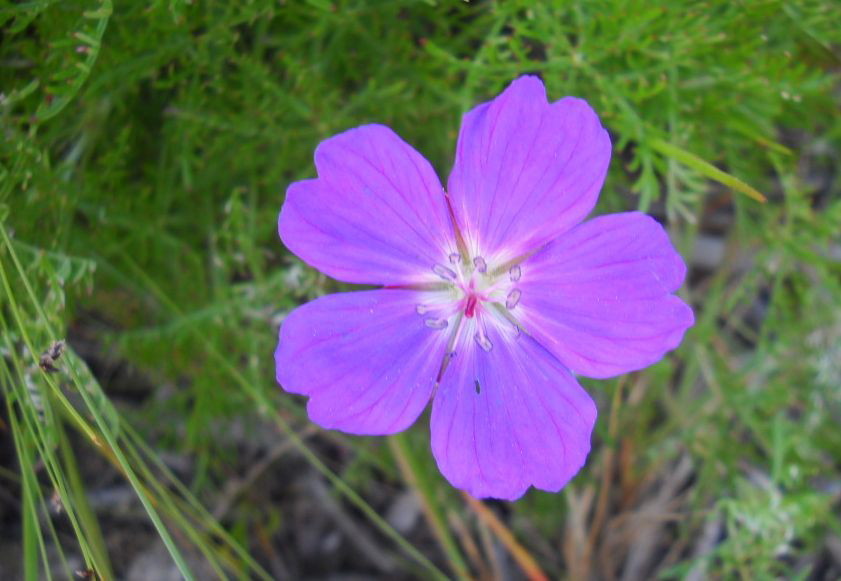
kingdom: Plantae
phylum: Tracheophyta
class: Magnoliopsida
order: Geraniales
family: Geraniaceae
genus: Geranium
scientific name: Geranium incanum
